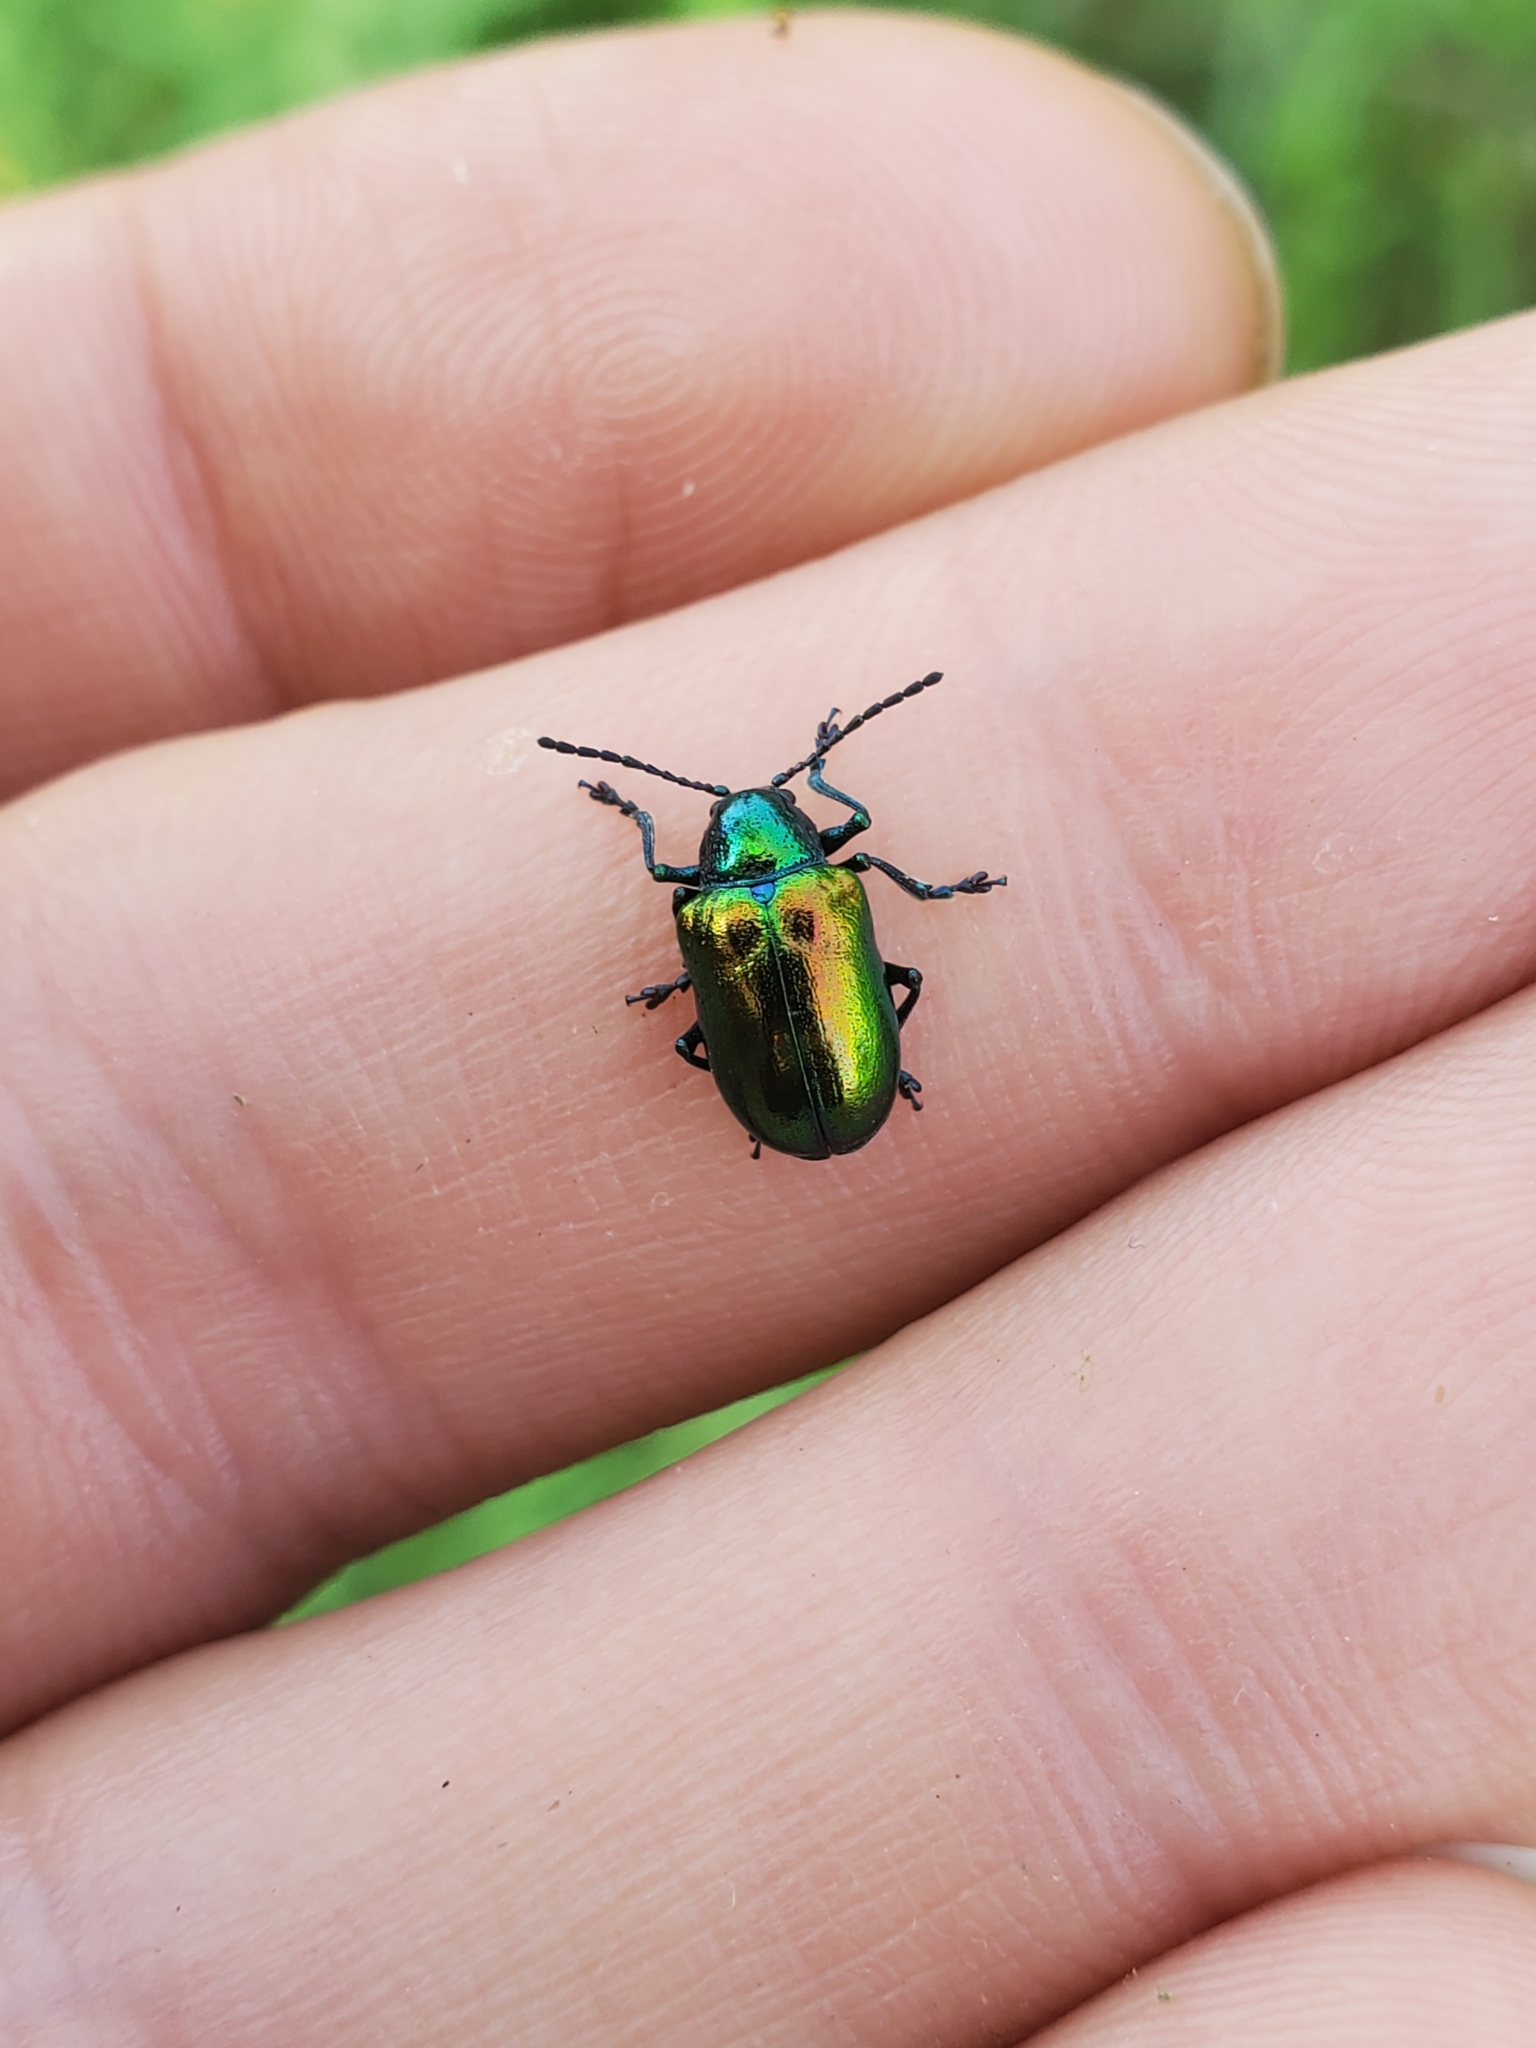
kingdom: Animalia
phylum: Arthropoda
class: Insecta
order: Coleoptera
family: Chrysomelidae
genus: Chrysochus
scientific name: Chrysochus auratus
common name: Dogbane leaf beetle
